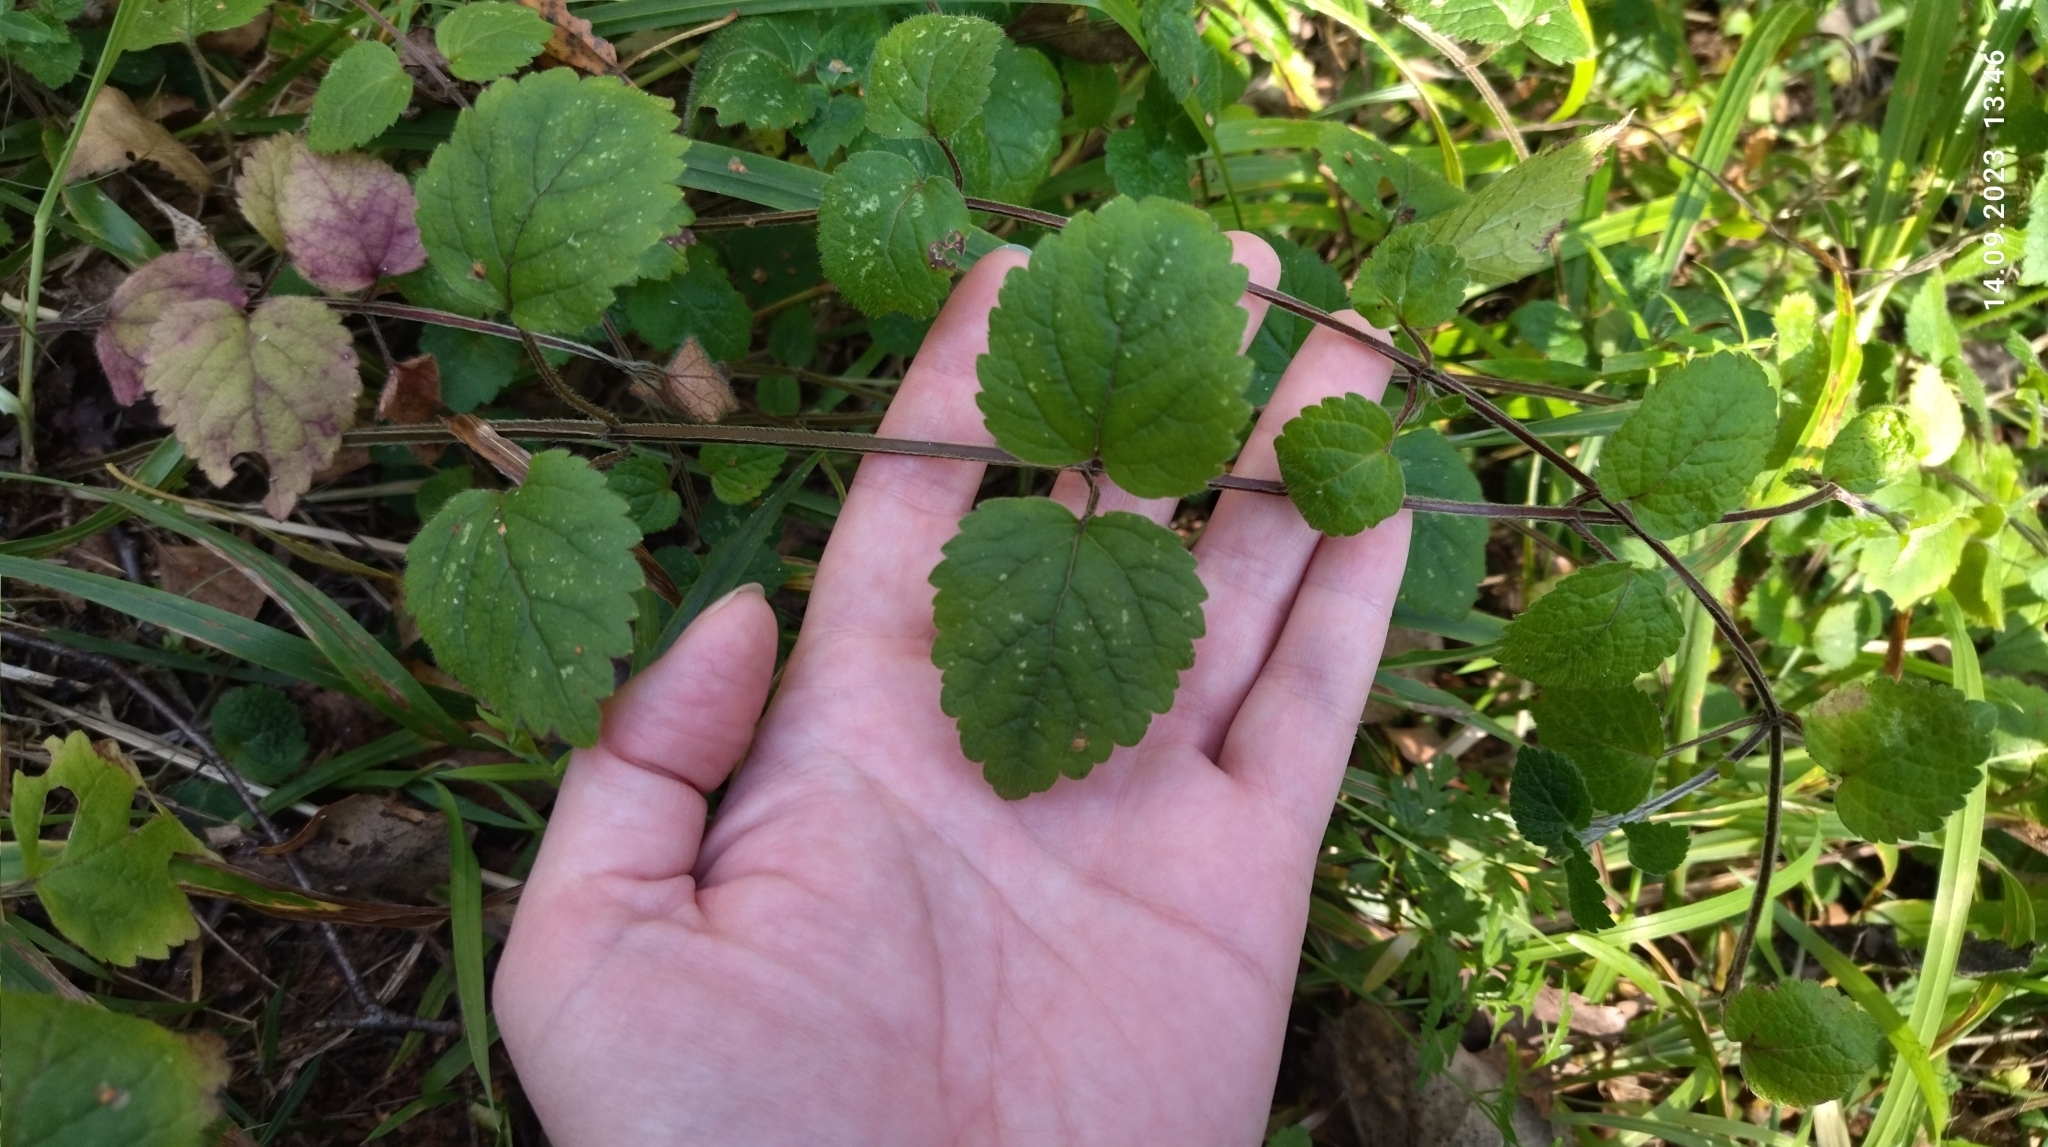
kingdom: Plantae
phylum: Tracheophyta
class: Magnoliopsida
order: Lamiales
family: Lamiaceae
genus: Lamium
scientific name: Lamium galeobdolon
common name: Yellow archangel
